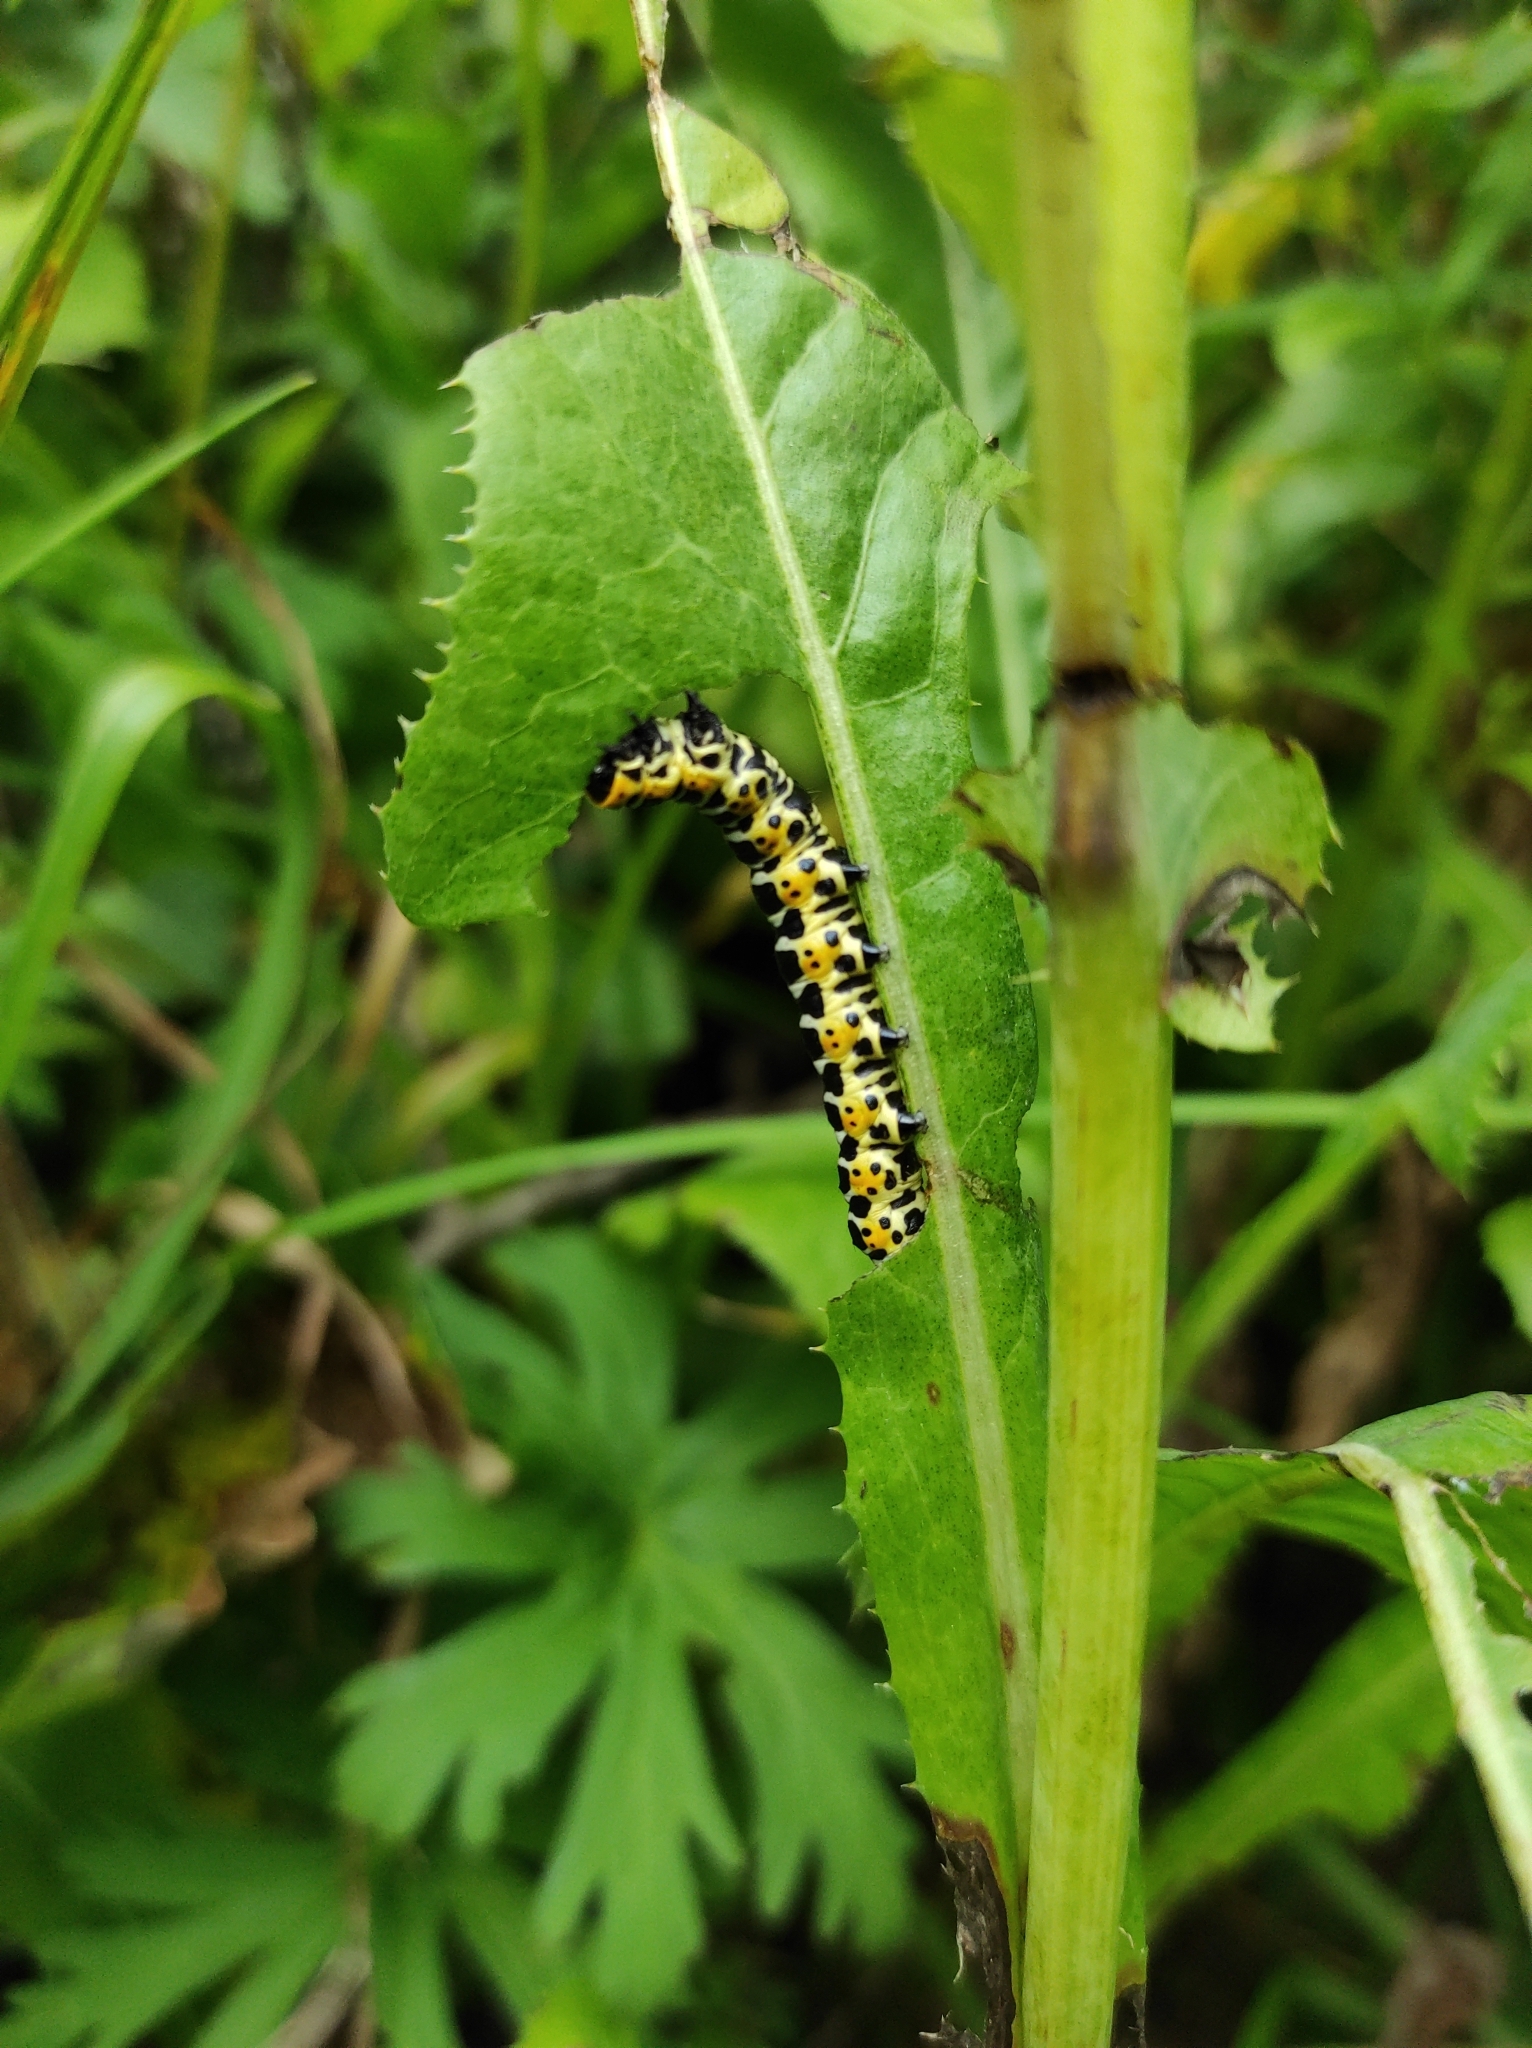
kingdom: Animalia
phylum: Arthropoda
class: Insecta
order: Lepidoptera
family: Noctuidae
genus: Cucullia
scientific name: Cucullia pustulata
